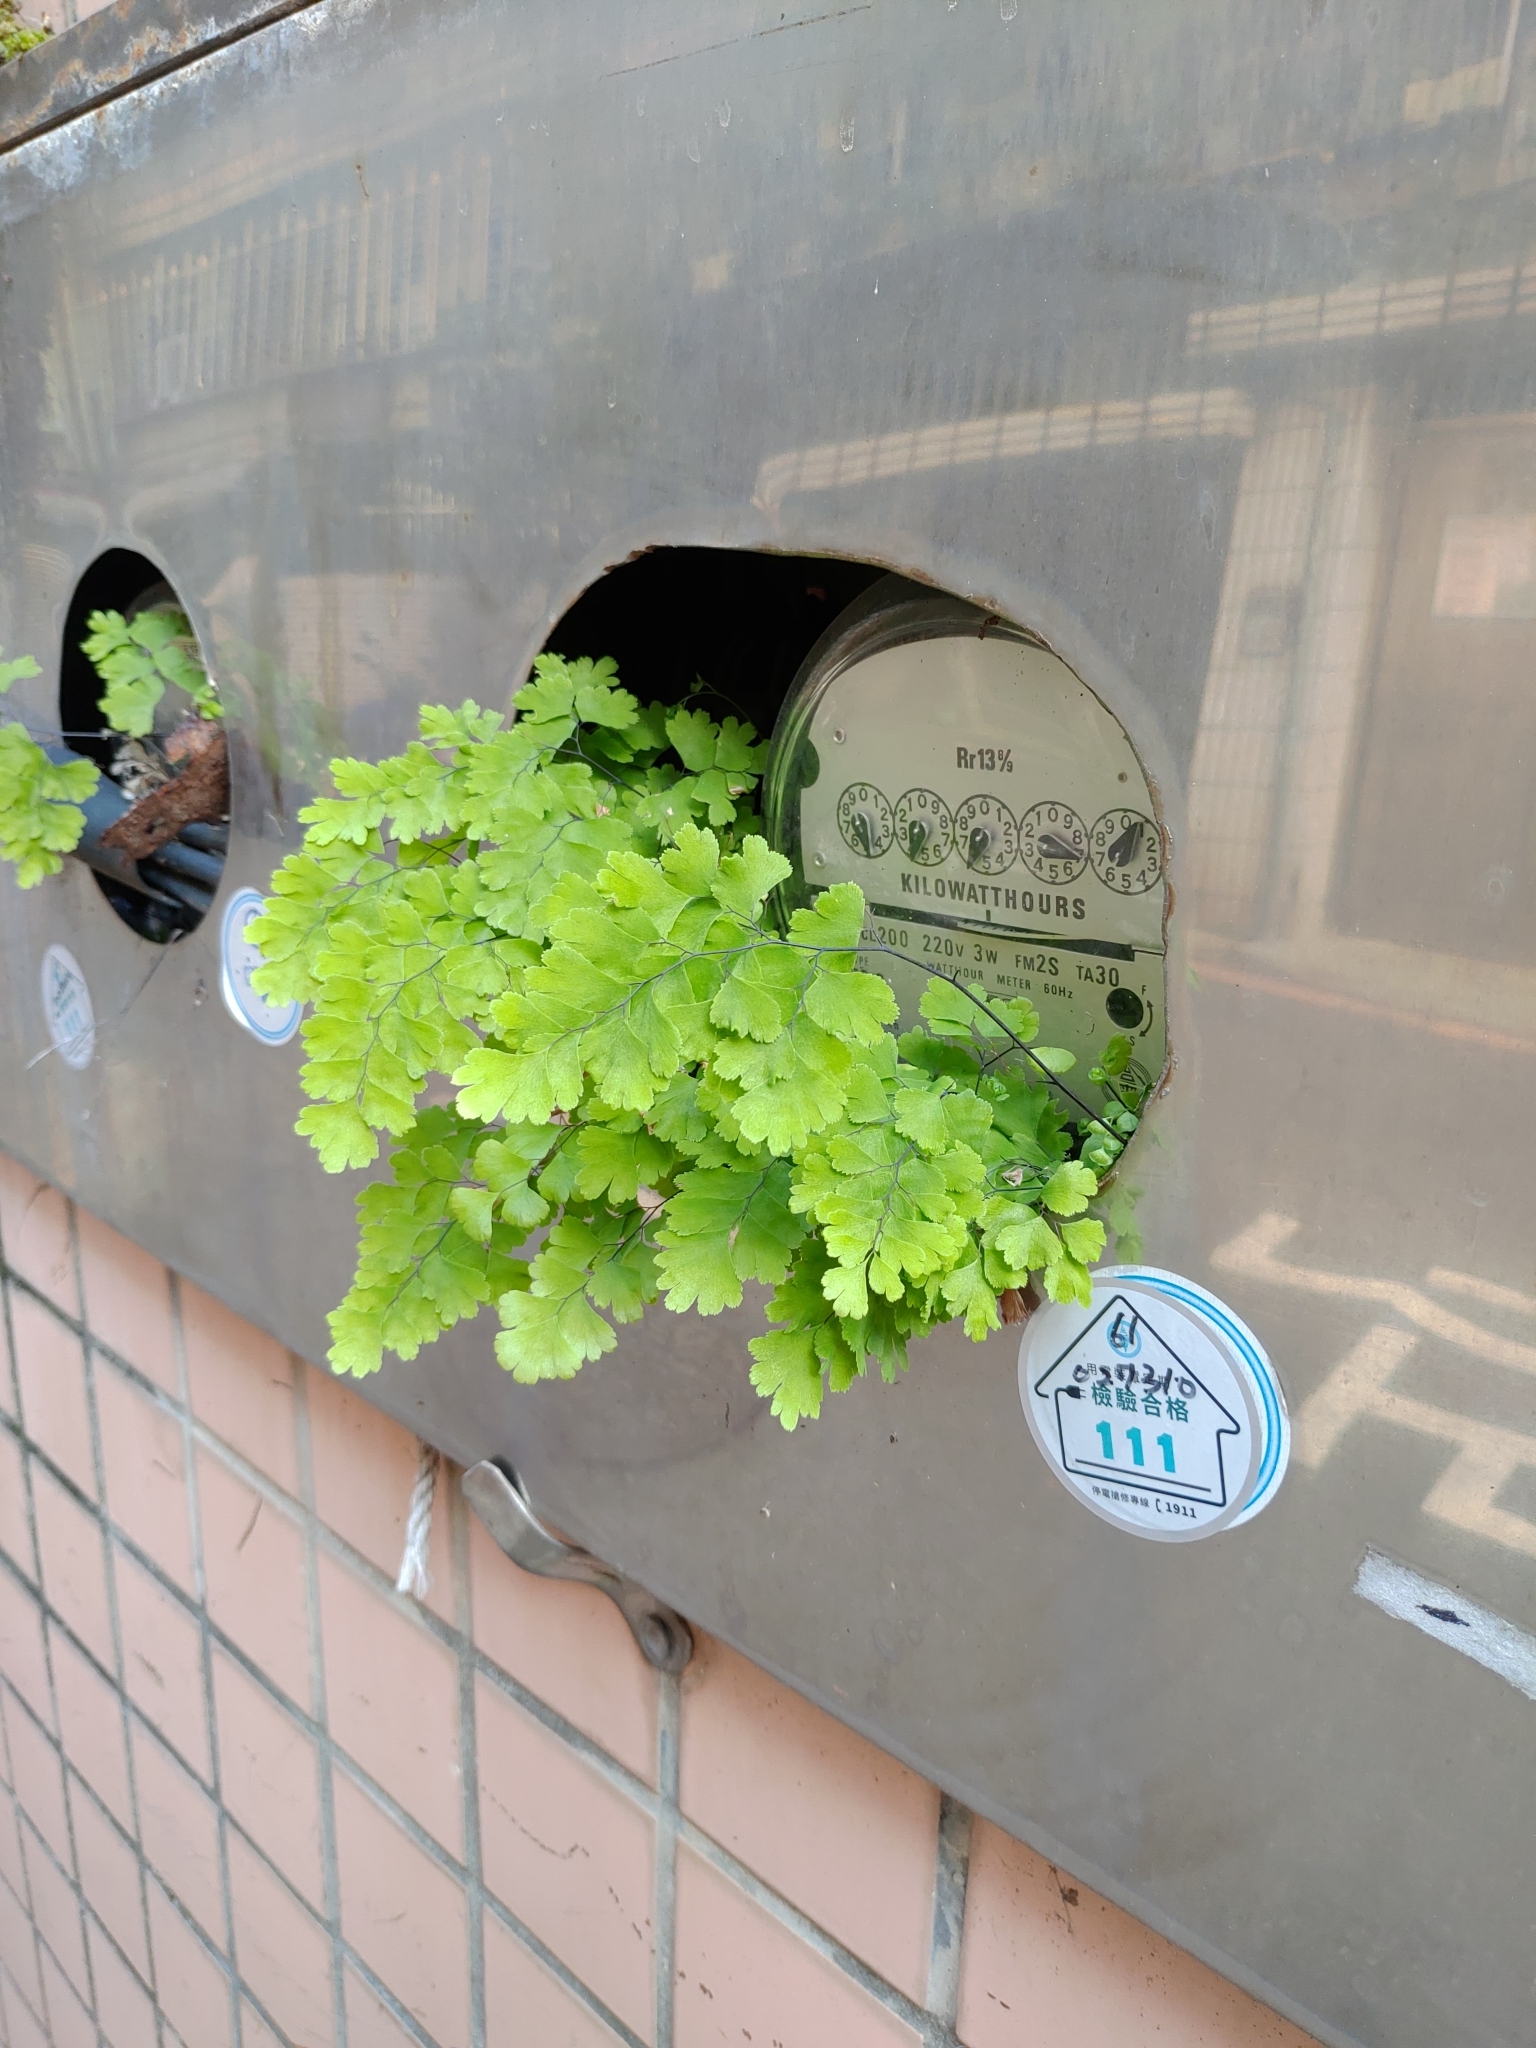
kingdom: Plantae
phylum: Tracheophyta
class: Polypodiopsida
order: Polypodiales
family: Pteridaceae
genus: Adiantum
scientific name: Adiantum capillus-veneris
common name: Maidenhair fern
